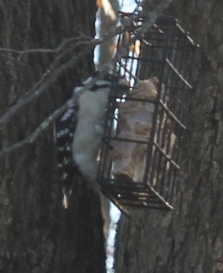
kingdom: Animalia
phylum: Chordata
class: Aves
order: Piciformes
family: Picidae
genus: Dryobates
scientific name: Dryobates pubescens
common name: Downy woodpecker
